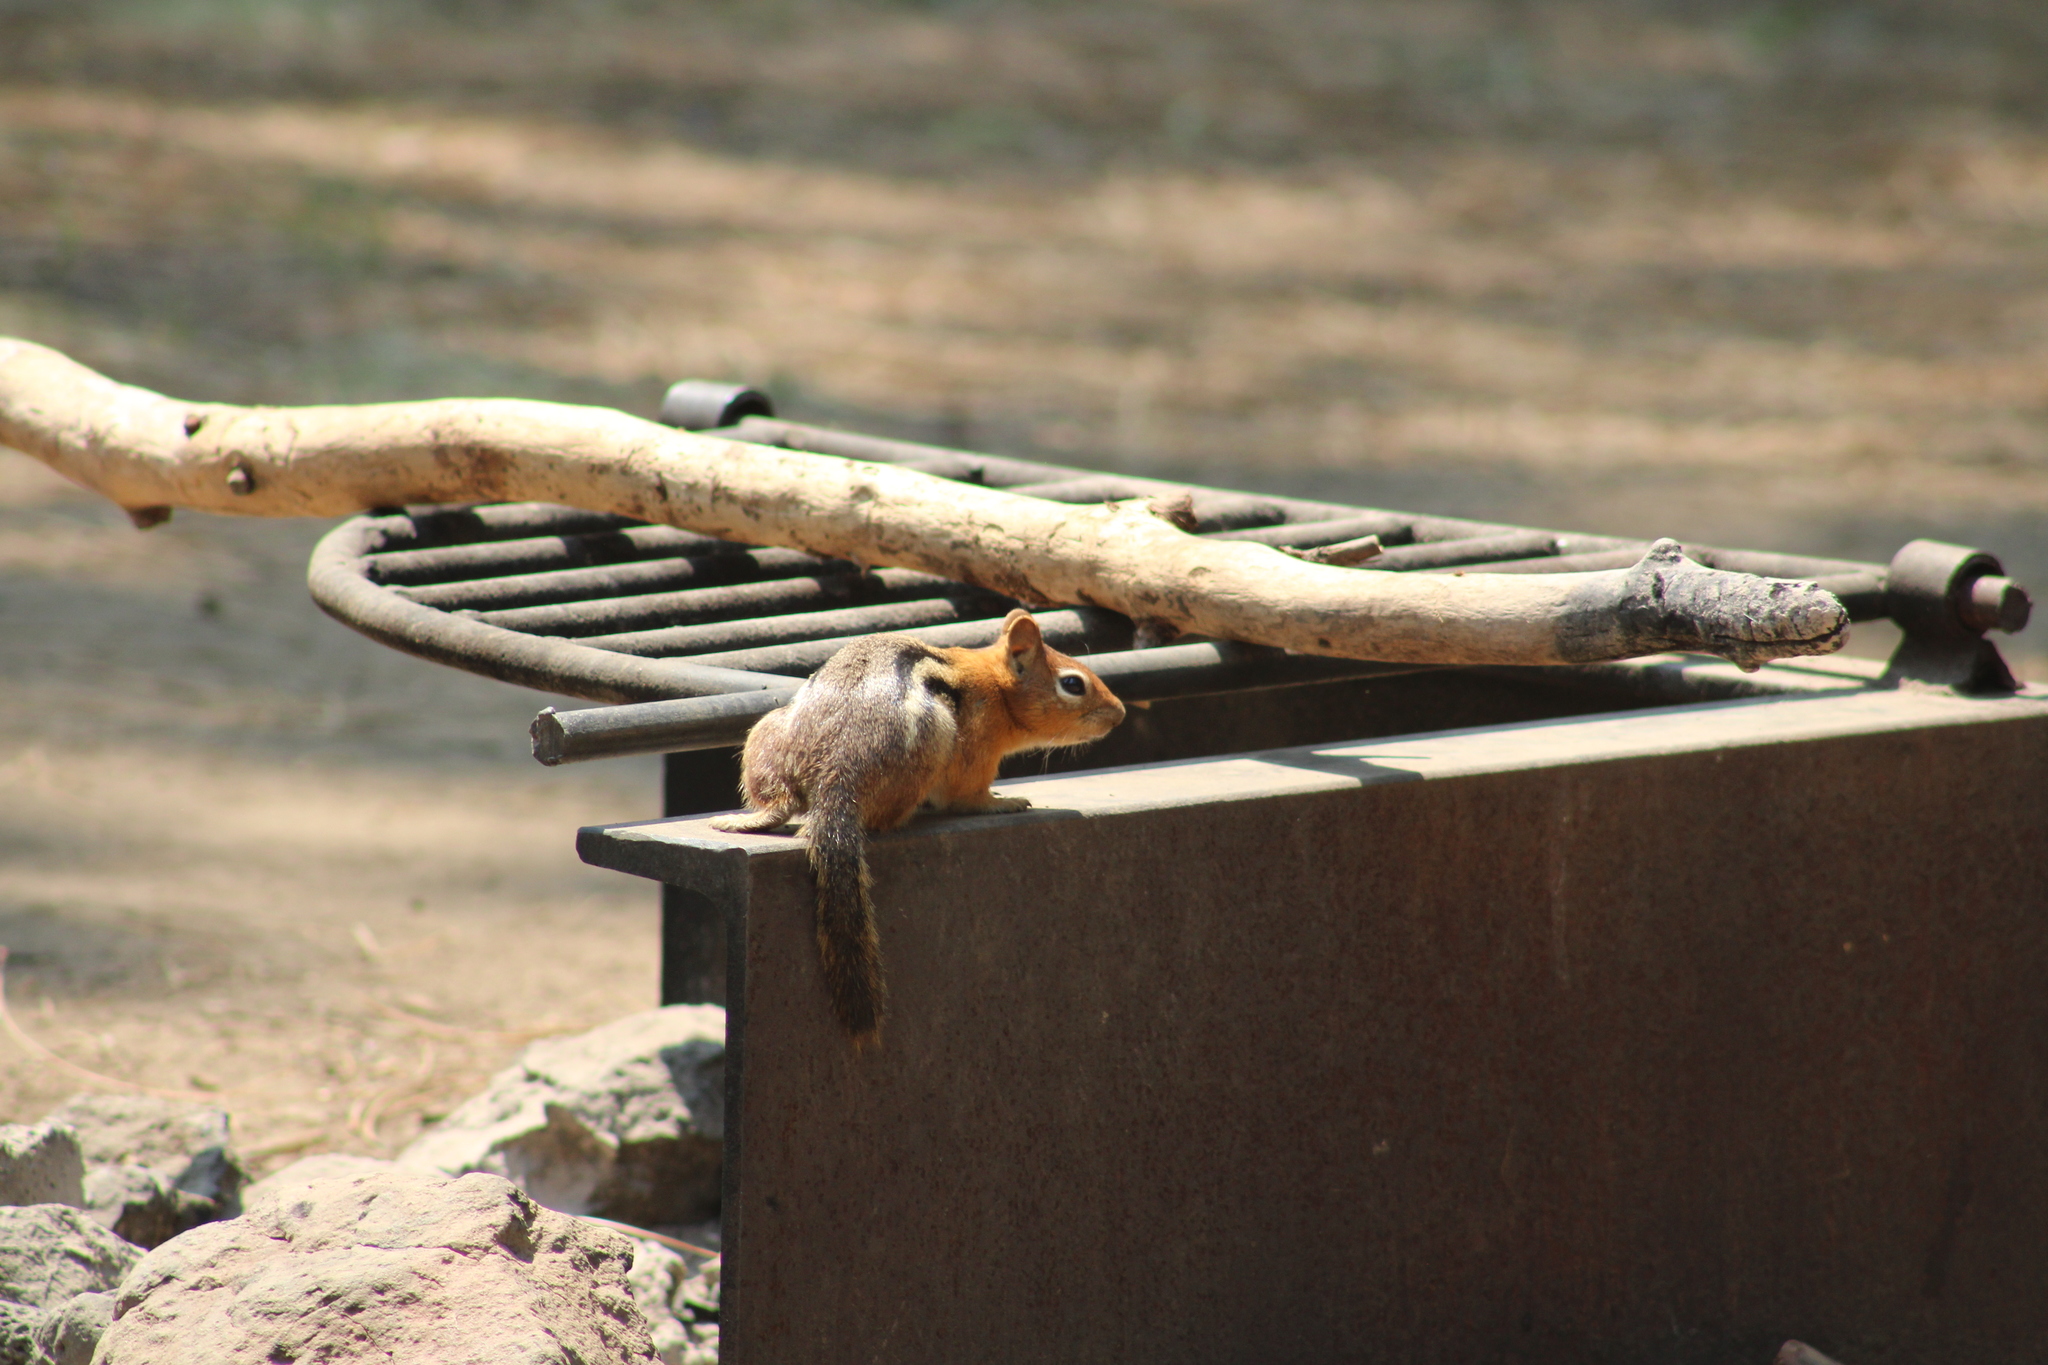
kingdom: Animalia
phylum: Chordata
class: Mammalia
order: Rodentia
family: Sciuridae
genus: Callospermophilus
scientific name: Callospermophilus lateralis
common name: Golden-mantled ground squirrel
